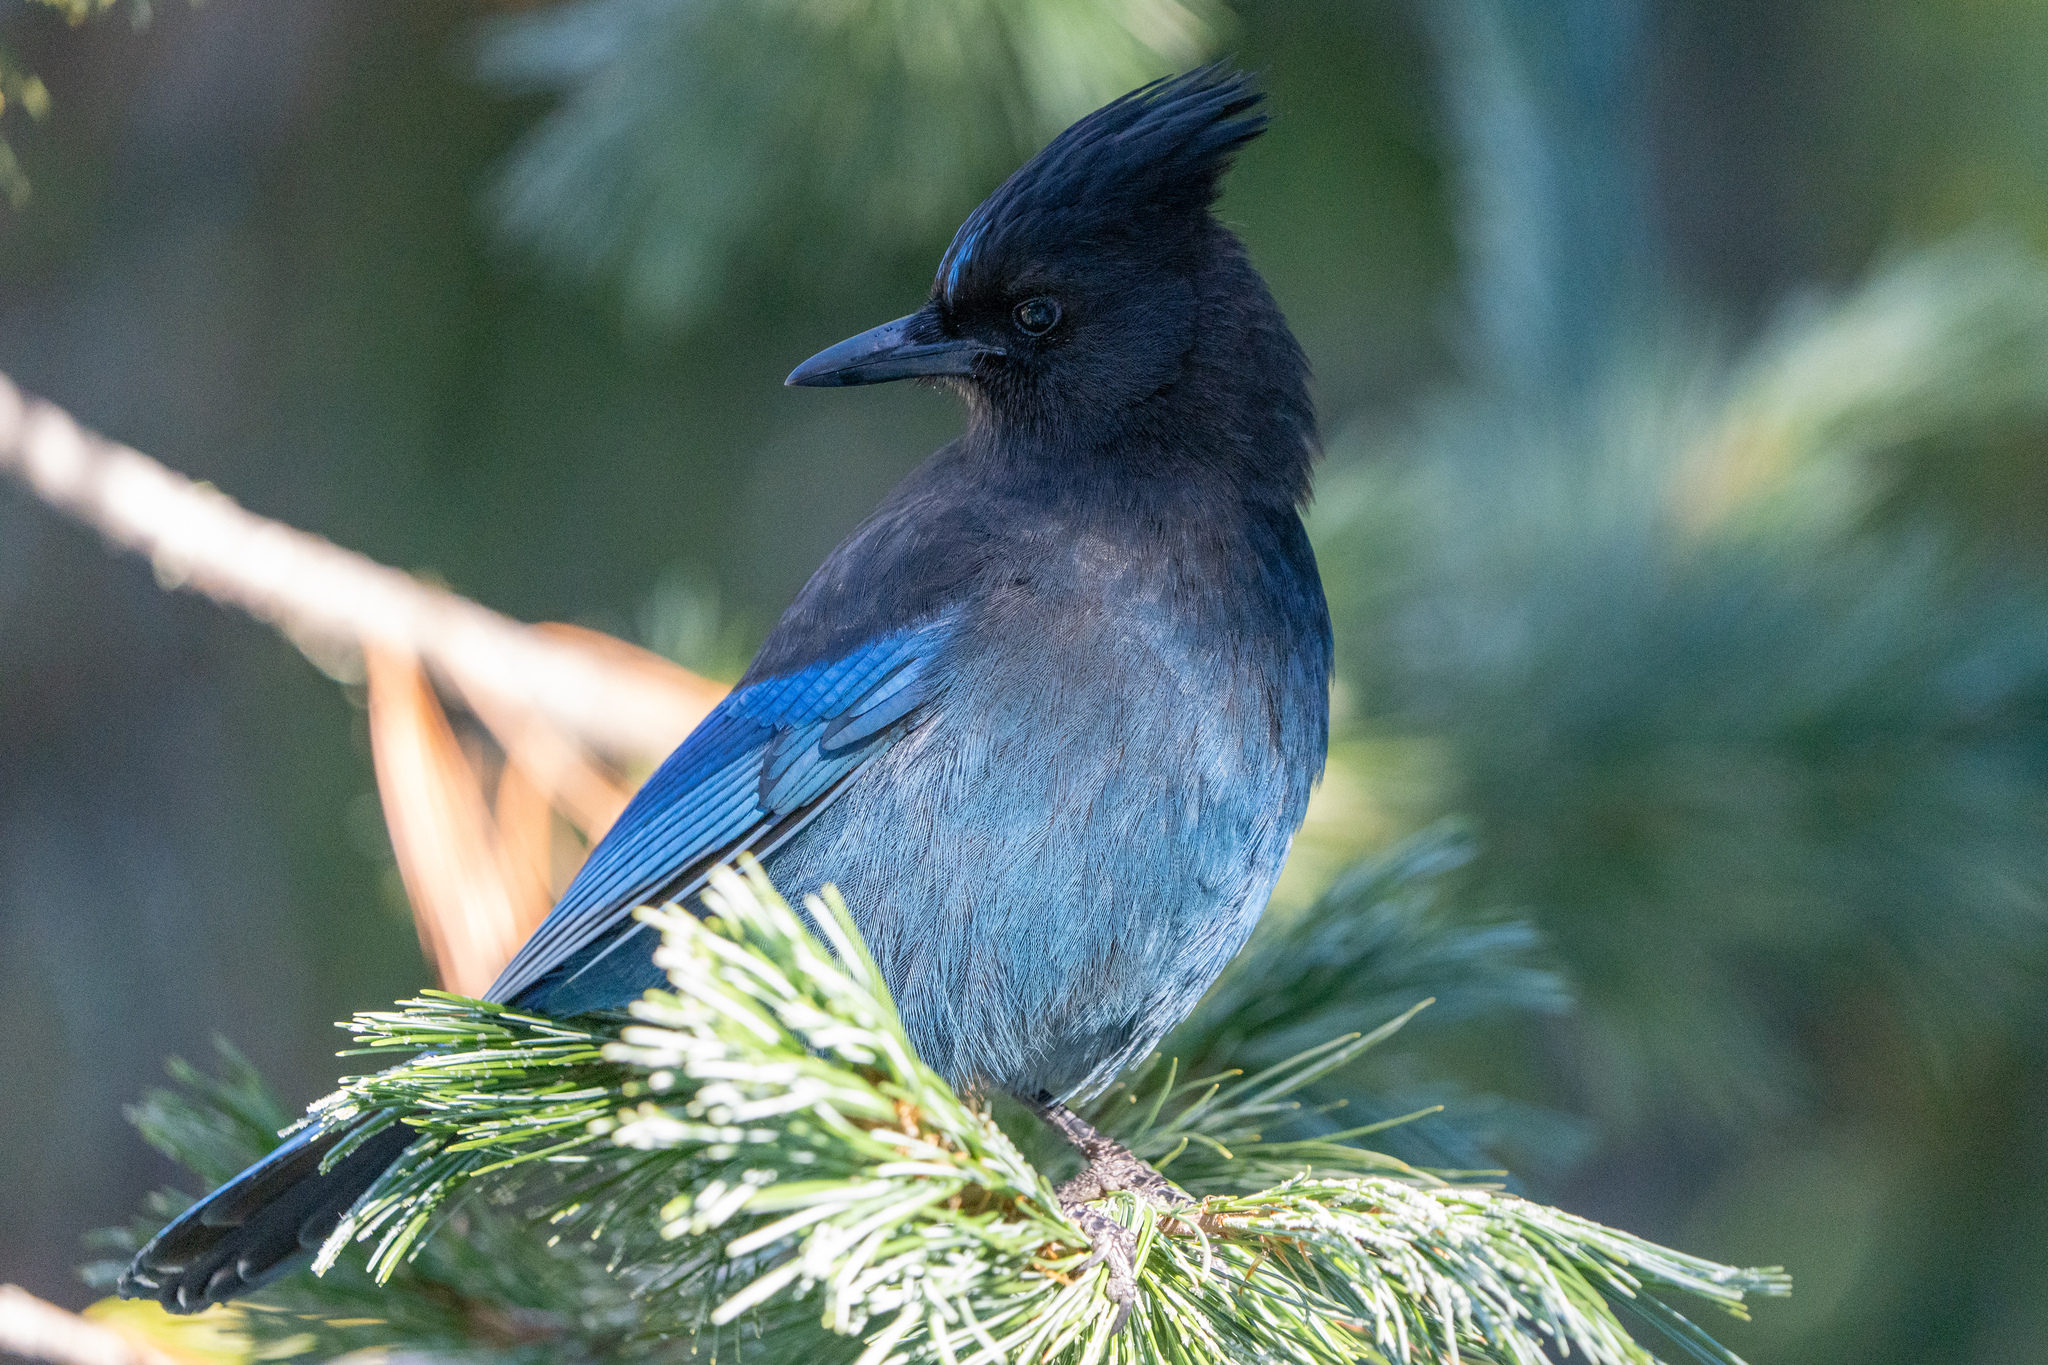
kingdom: Animalia
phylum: Chordata
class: Aves
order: Passeriformes
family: Corvidae
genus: Cyanocitta
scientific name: Cyanocitta stelleri
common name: Steller's jay
